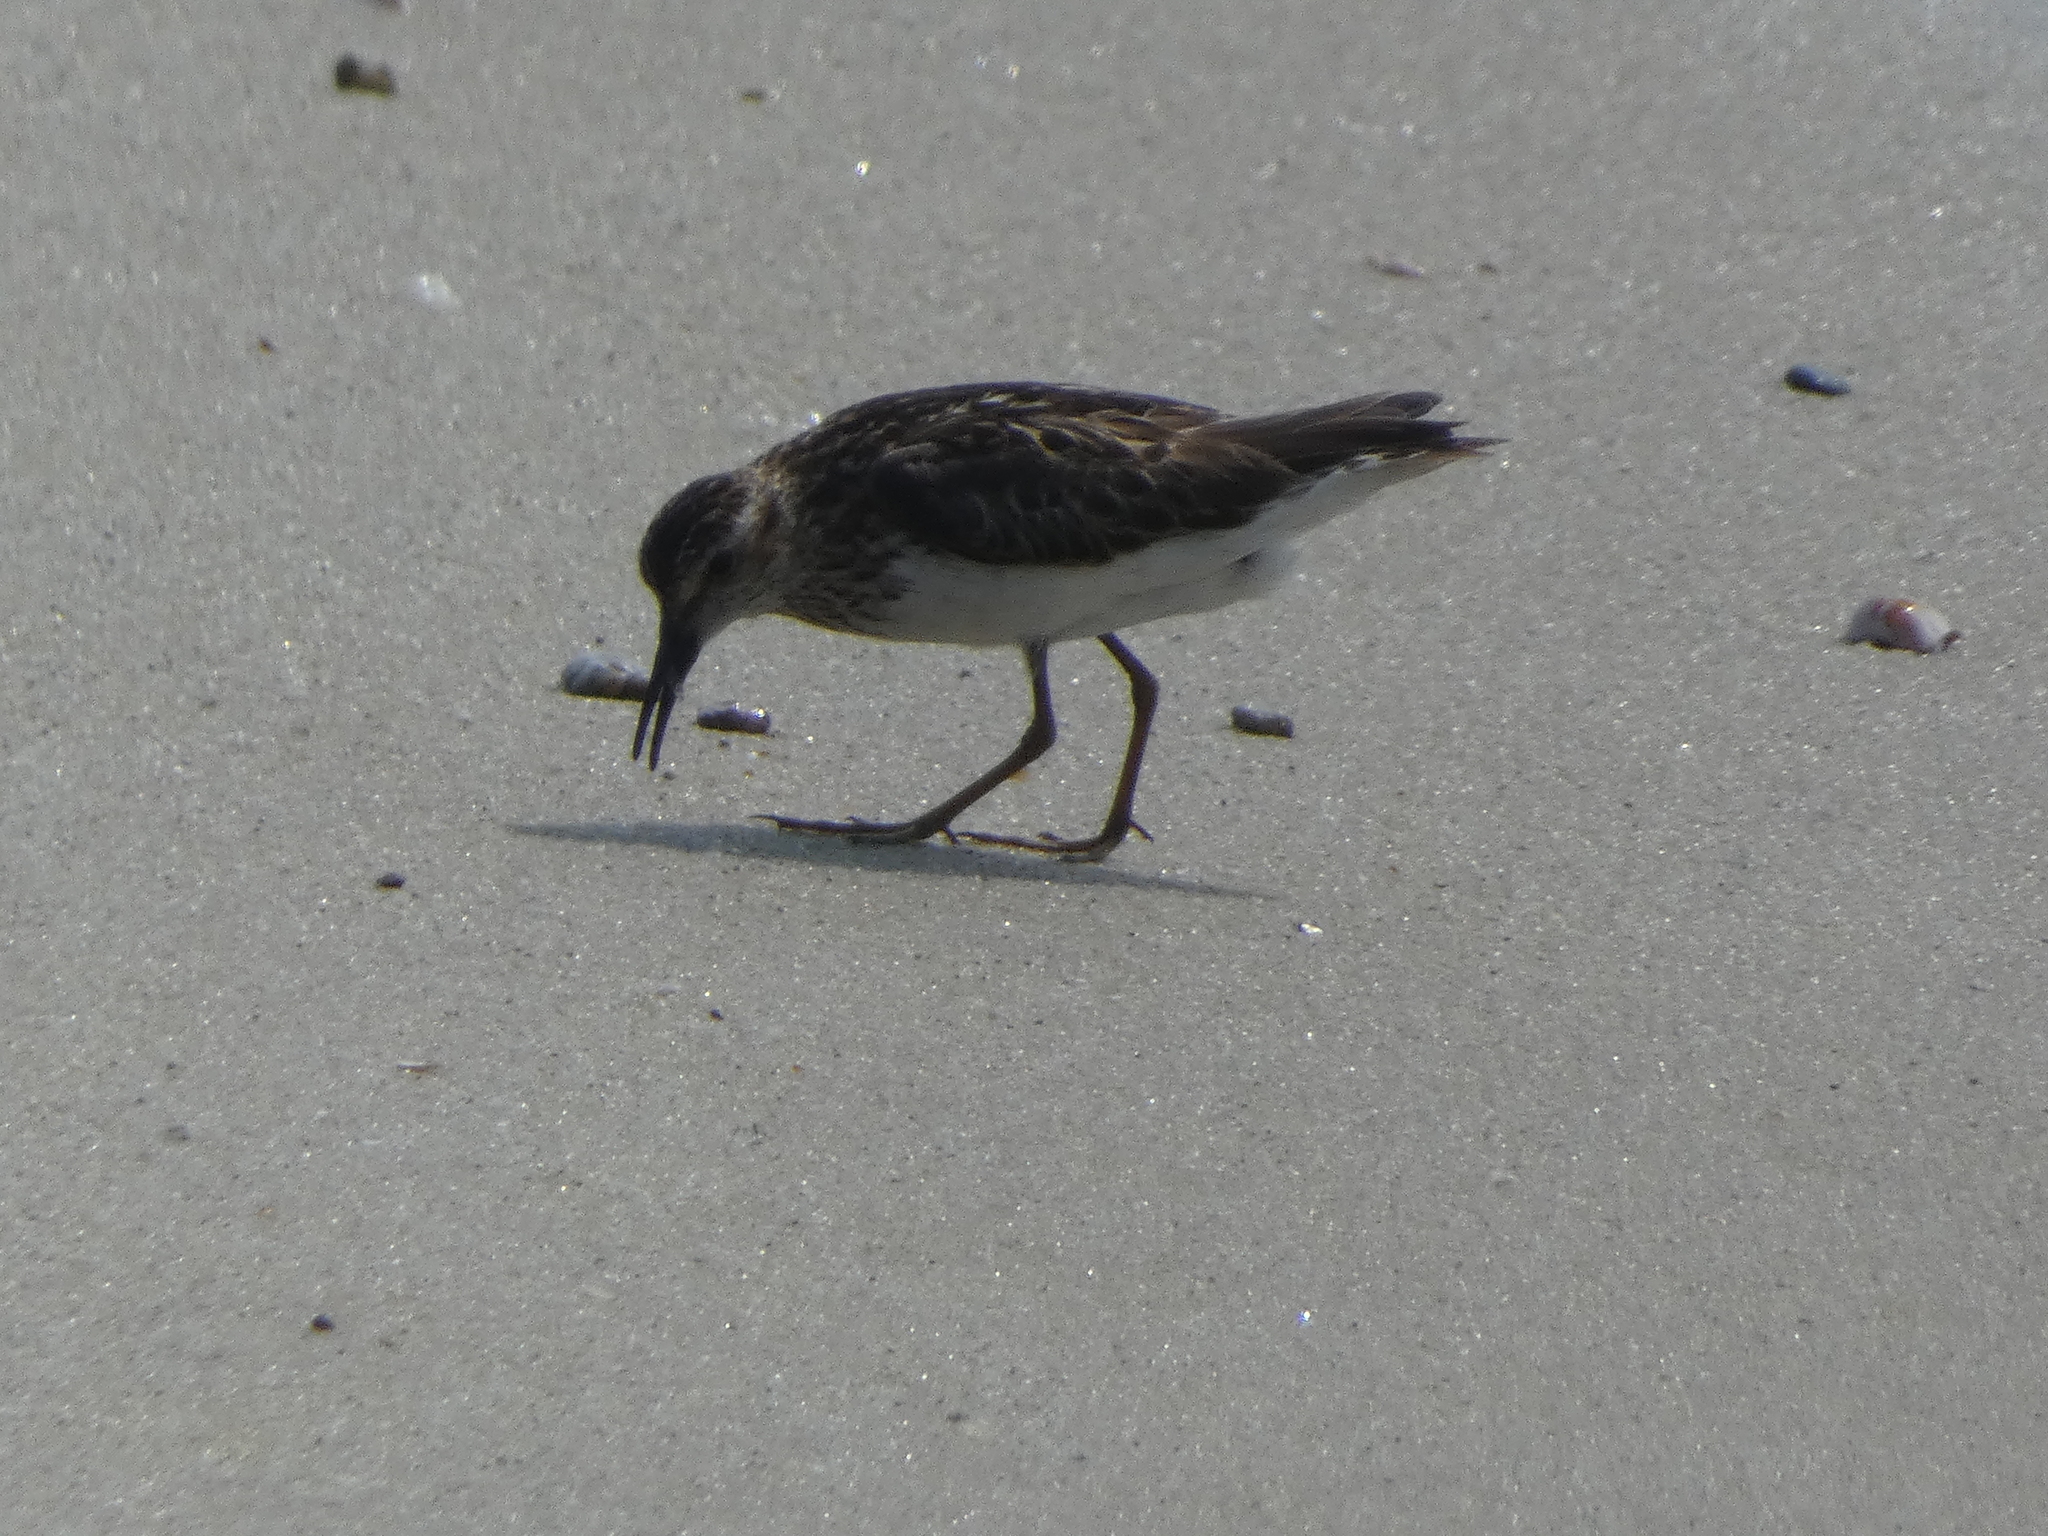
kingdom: Animalia
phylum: Chordata
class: Aves
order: Charadriiformes
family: Scolopacidae
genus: Calidris
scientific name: Calidris minutilla
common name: Least sandpiper
